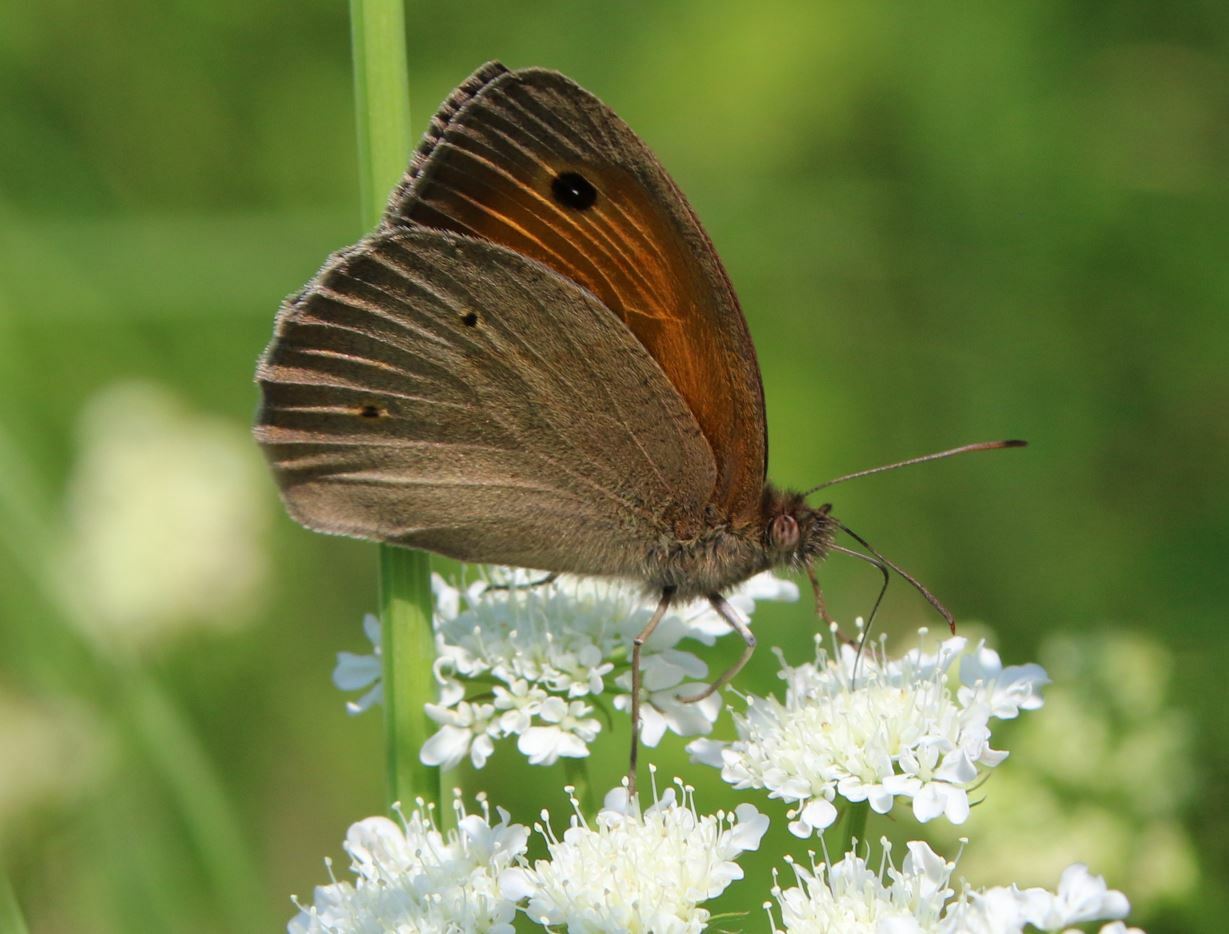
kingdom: Animalia
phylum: Arthropoda
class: Insecta
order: Lepidoptera
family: Nymphalidae
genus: Maniola
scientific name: Maniola jurtina
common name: Meadow brown
